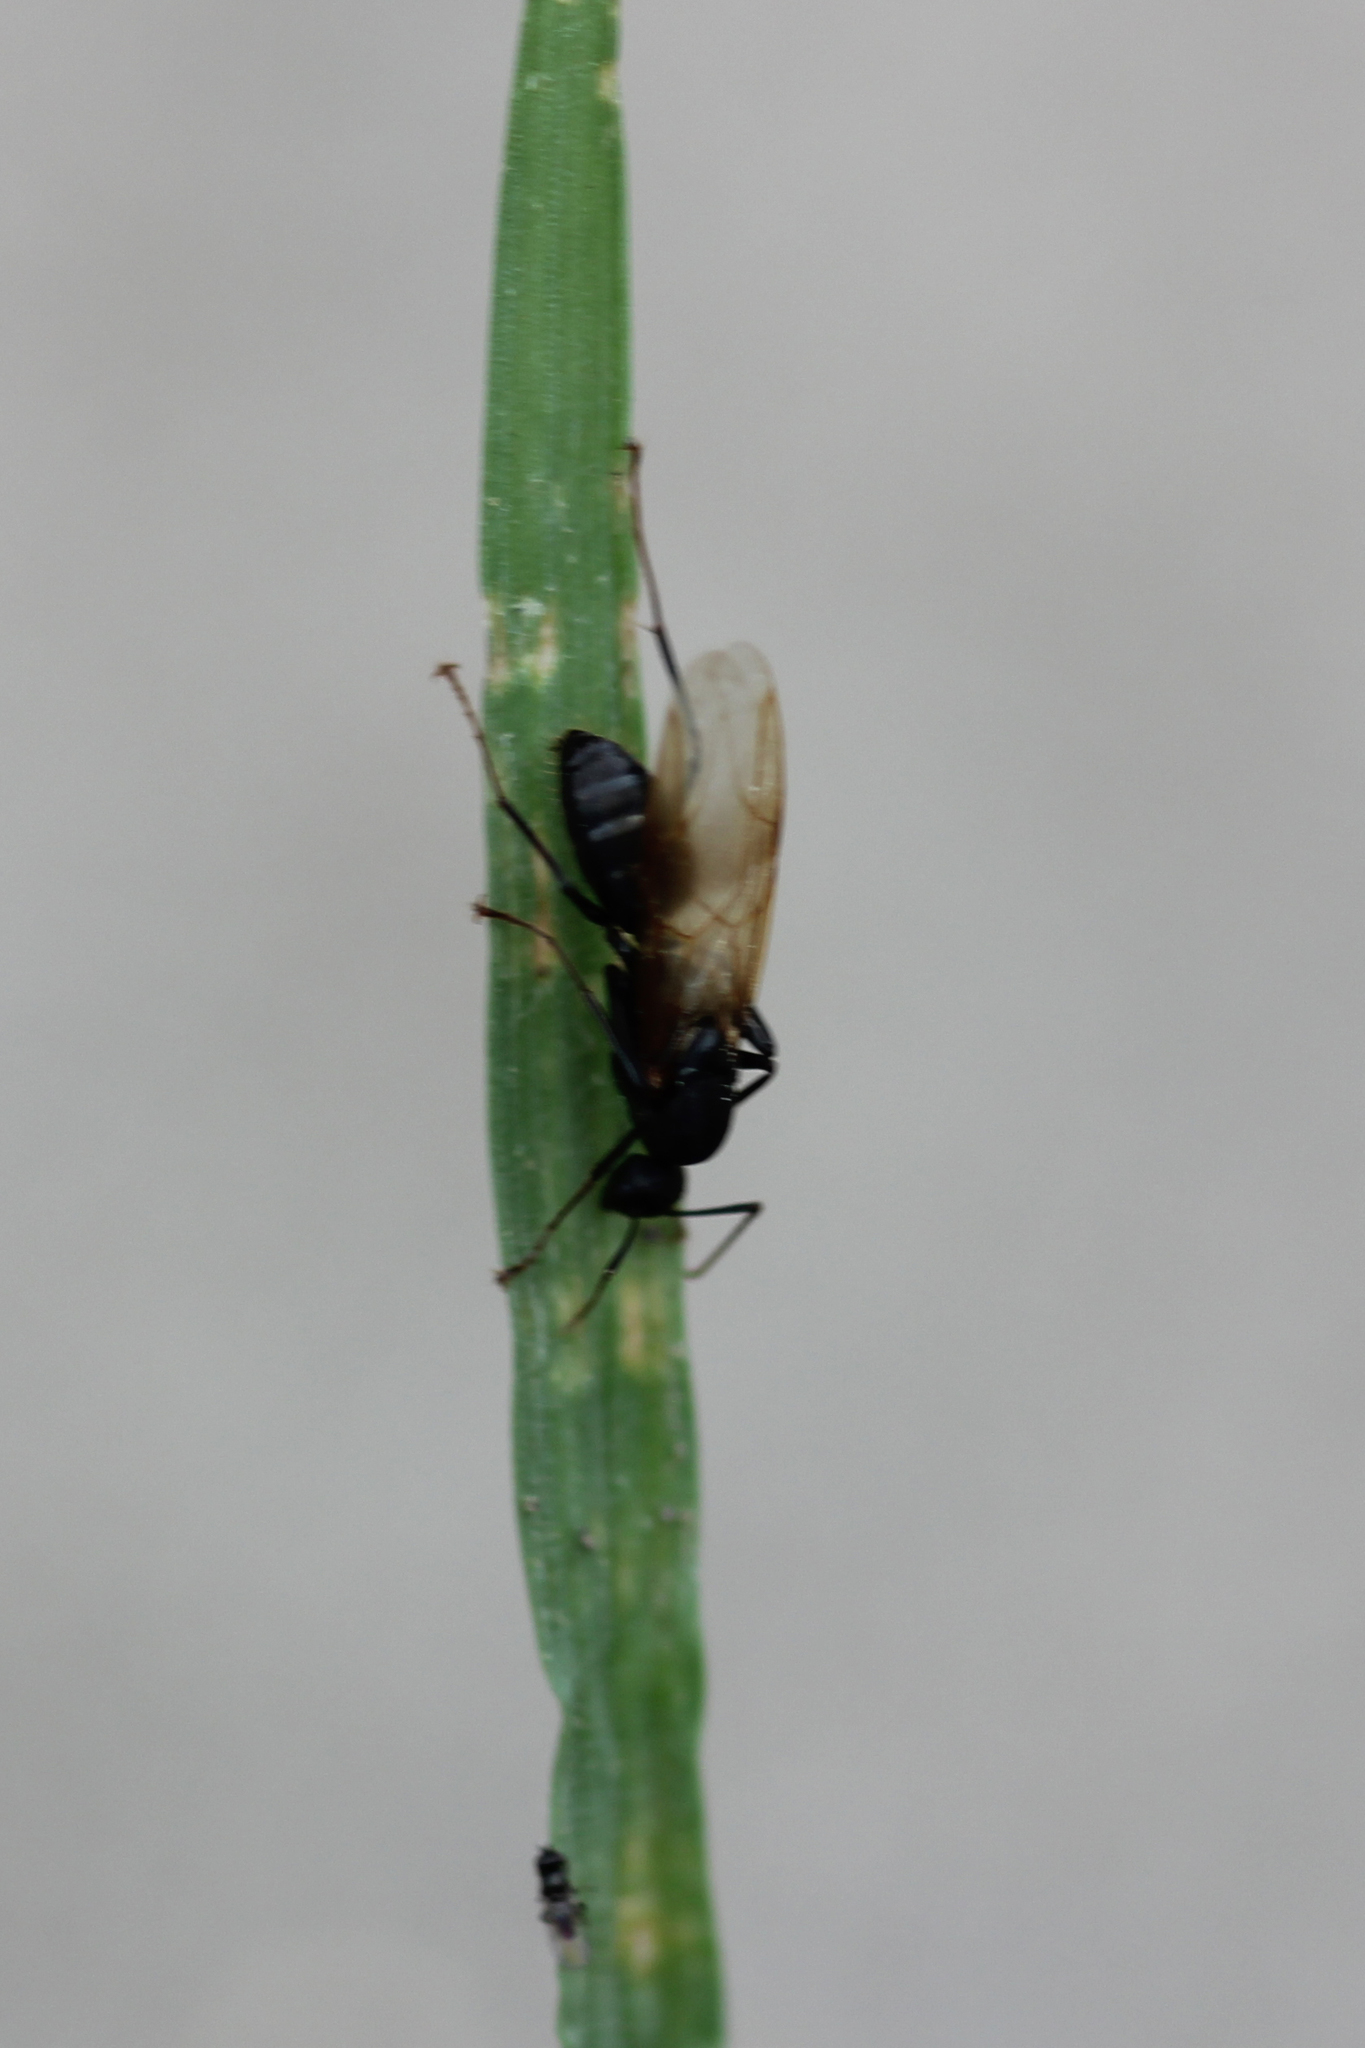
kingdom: Animalia
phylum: Arthropoda
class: Insecta
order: Hymenoptera
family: Formicidae
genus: Camponotus
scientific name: Camponotus pennsylvanicus
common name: Black carpenter ant
